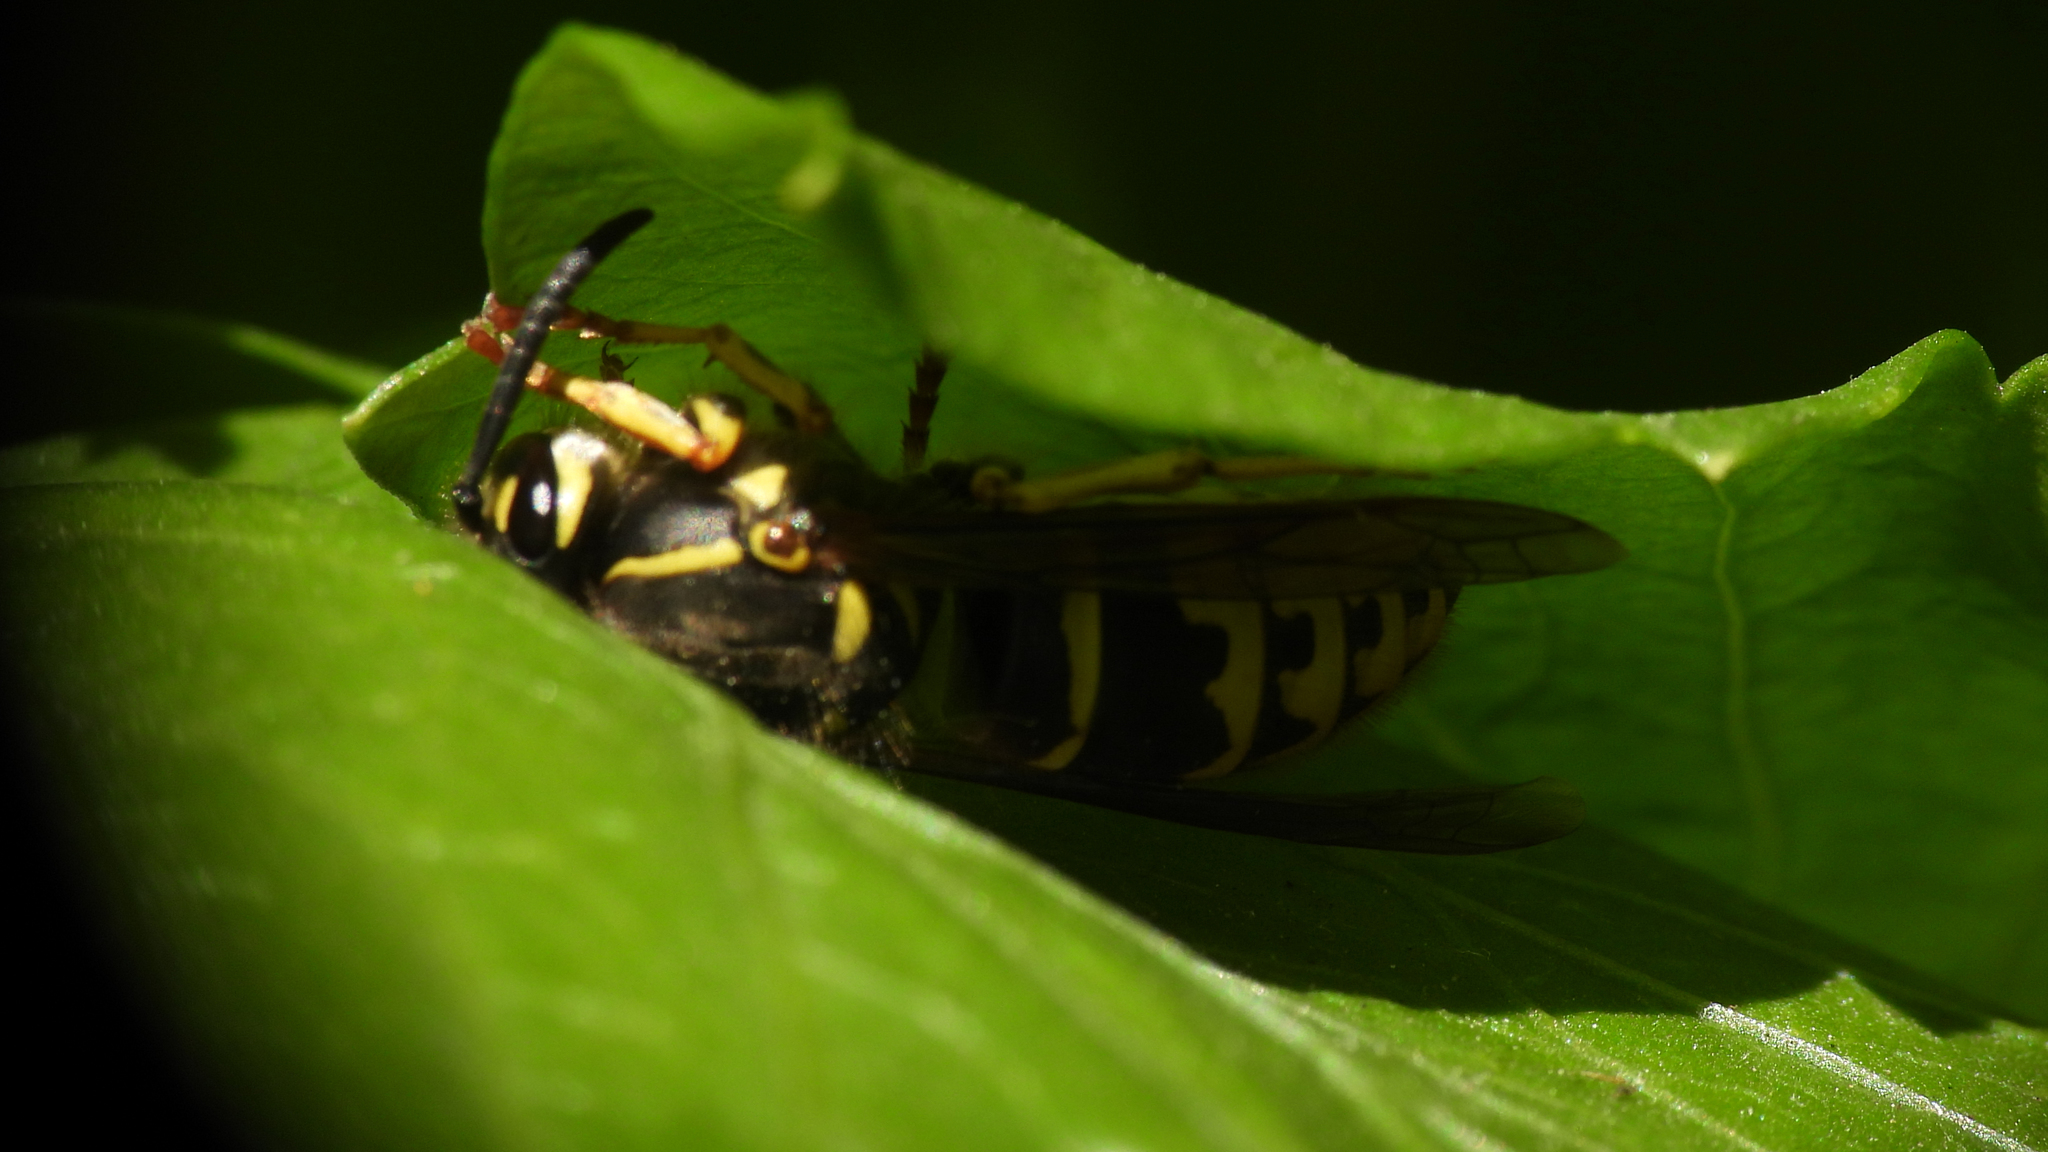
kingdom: Animalia
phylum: Arthropoda
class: Insecta
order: Hymenoptera
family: Vespidae
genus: Vespula
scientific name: Vespula alascensis
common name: Alaska yellowjacket
